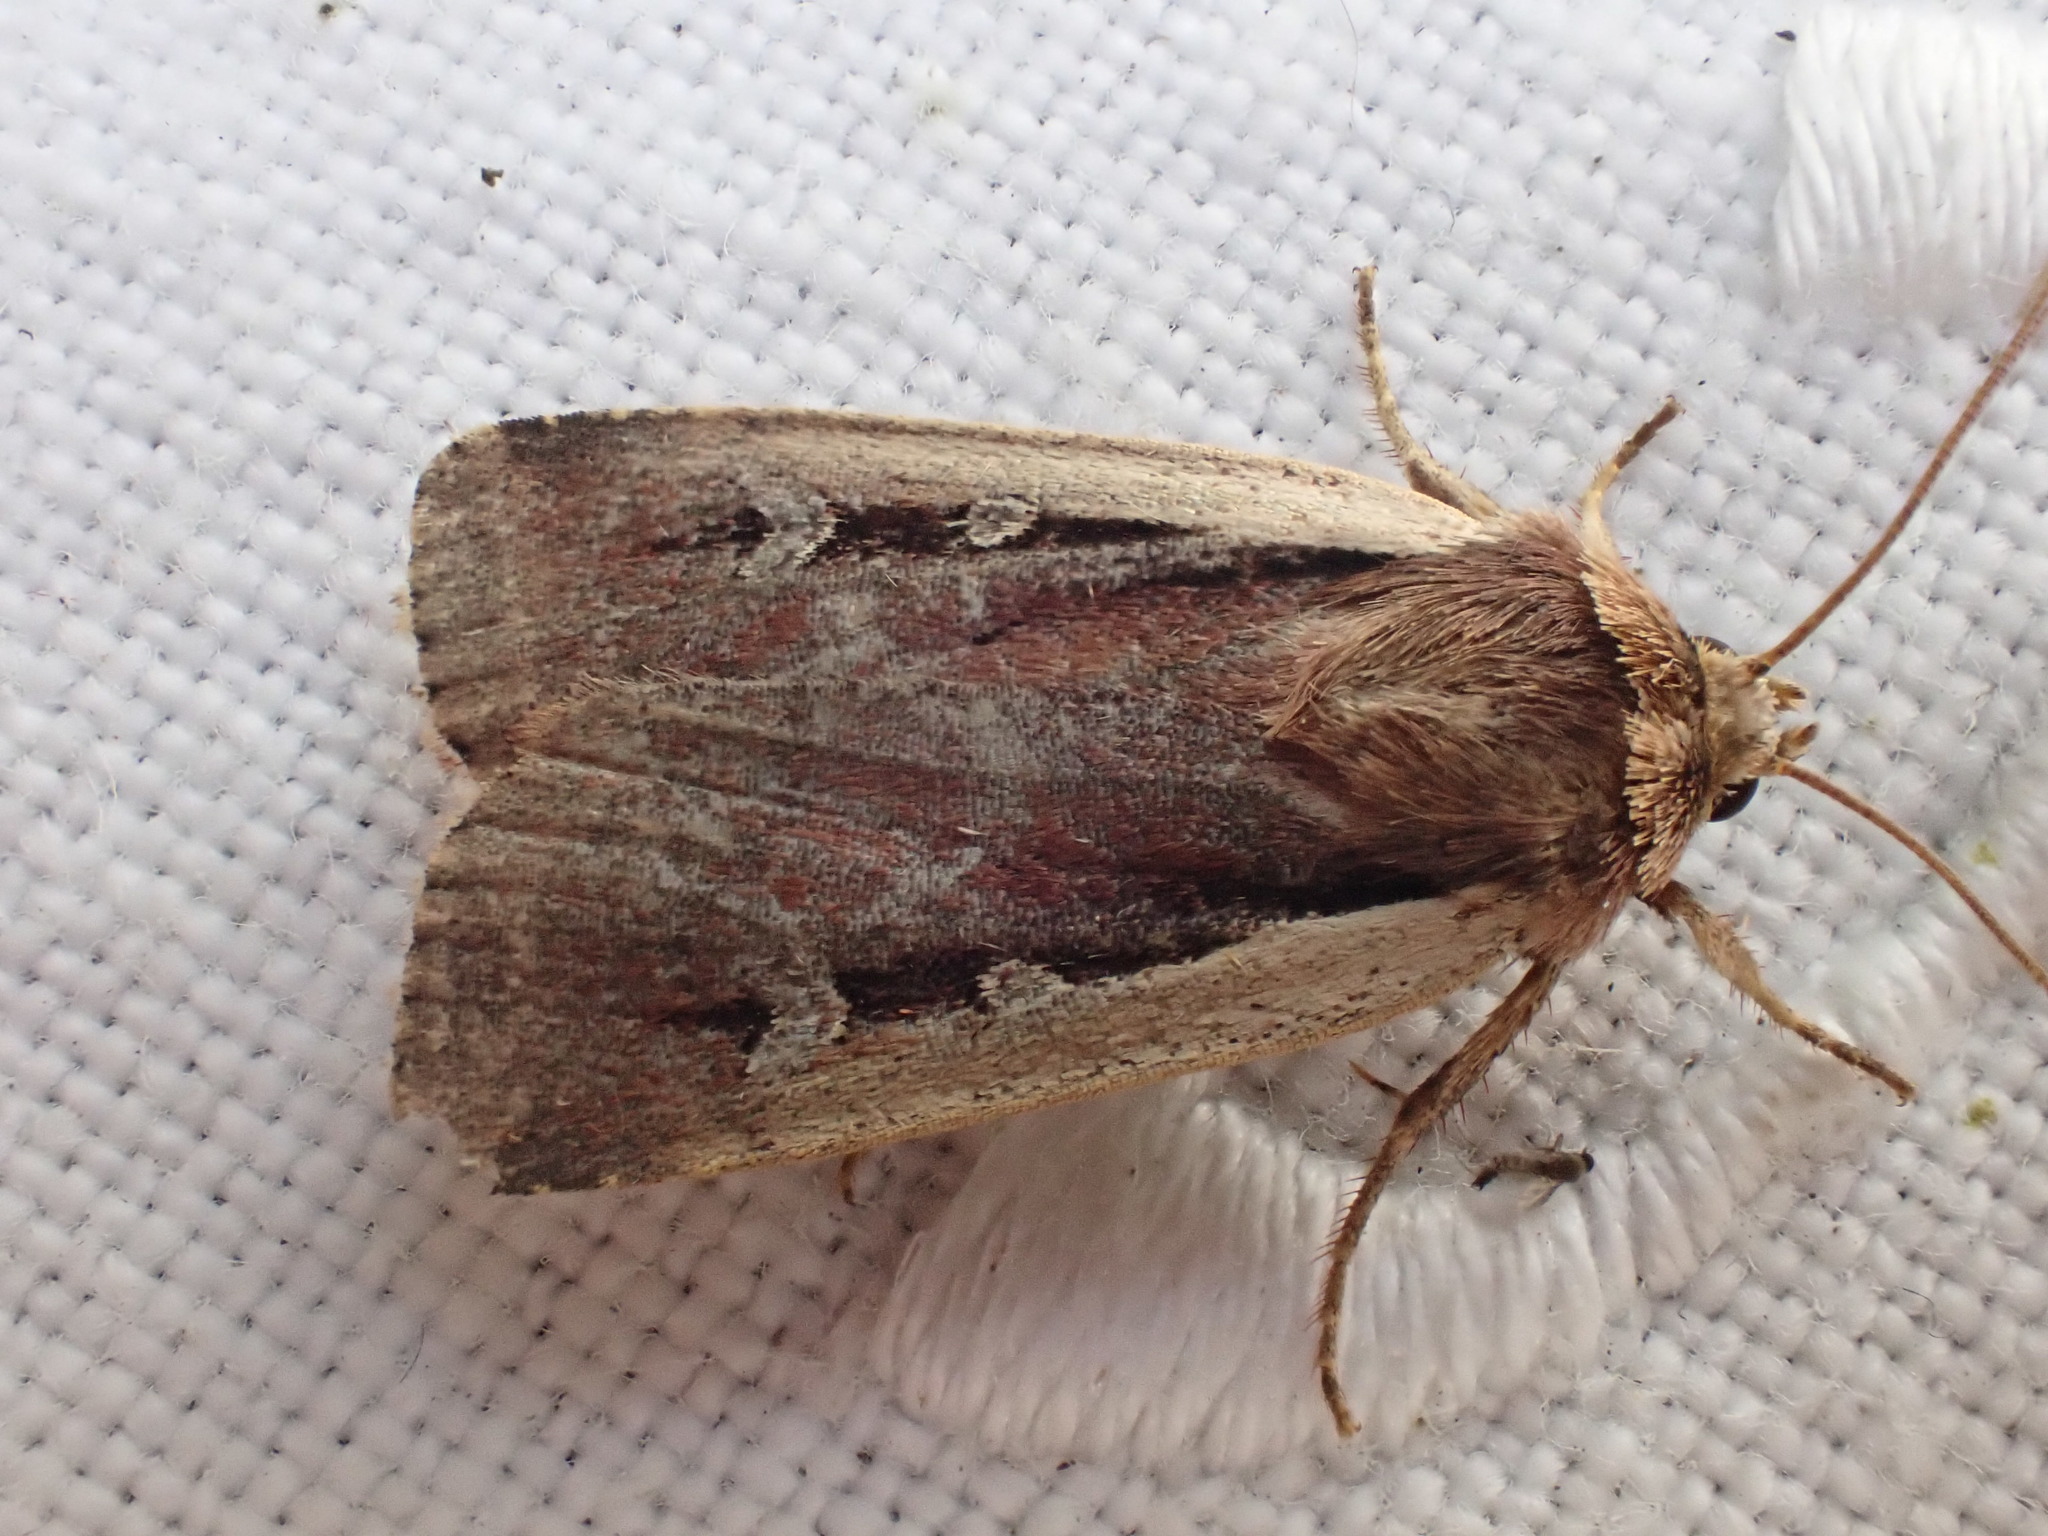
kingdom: Animalia
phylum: Arthropoda
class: Insecta
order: Lepidoptera
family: Noctuidae
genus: Ochropleura
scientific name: Ochropleura plecta
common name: Flame shoulder
